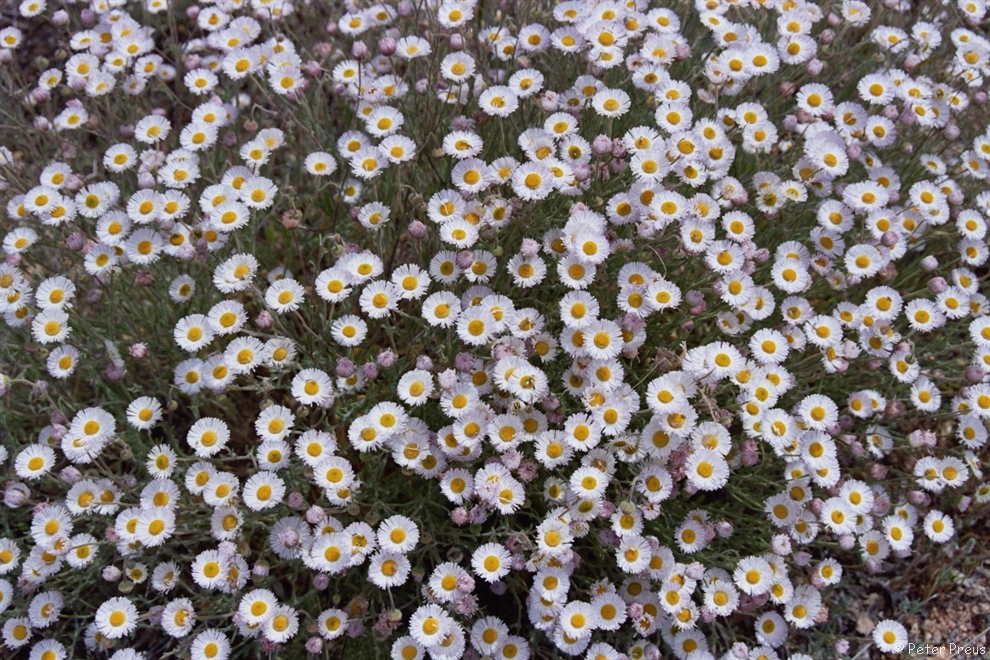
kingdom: Plantae
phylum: Tracheophyta
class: Magnoliopsida
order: Asterales
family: Asteraceae
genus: Erigeron
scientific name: Erigeron
